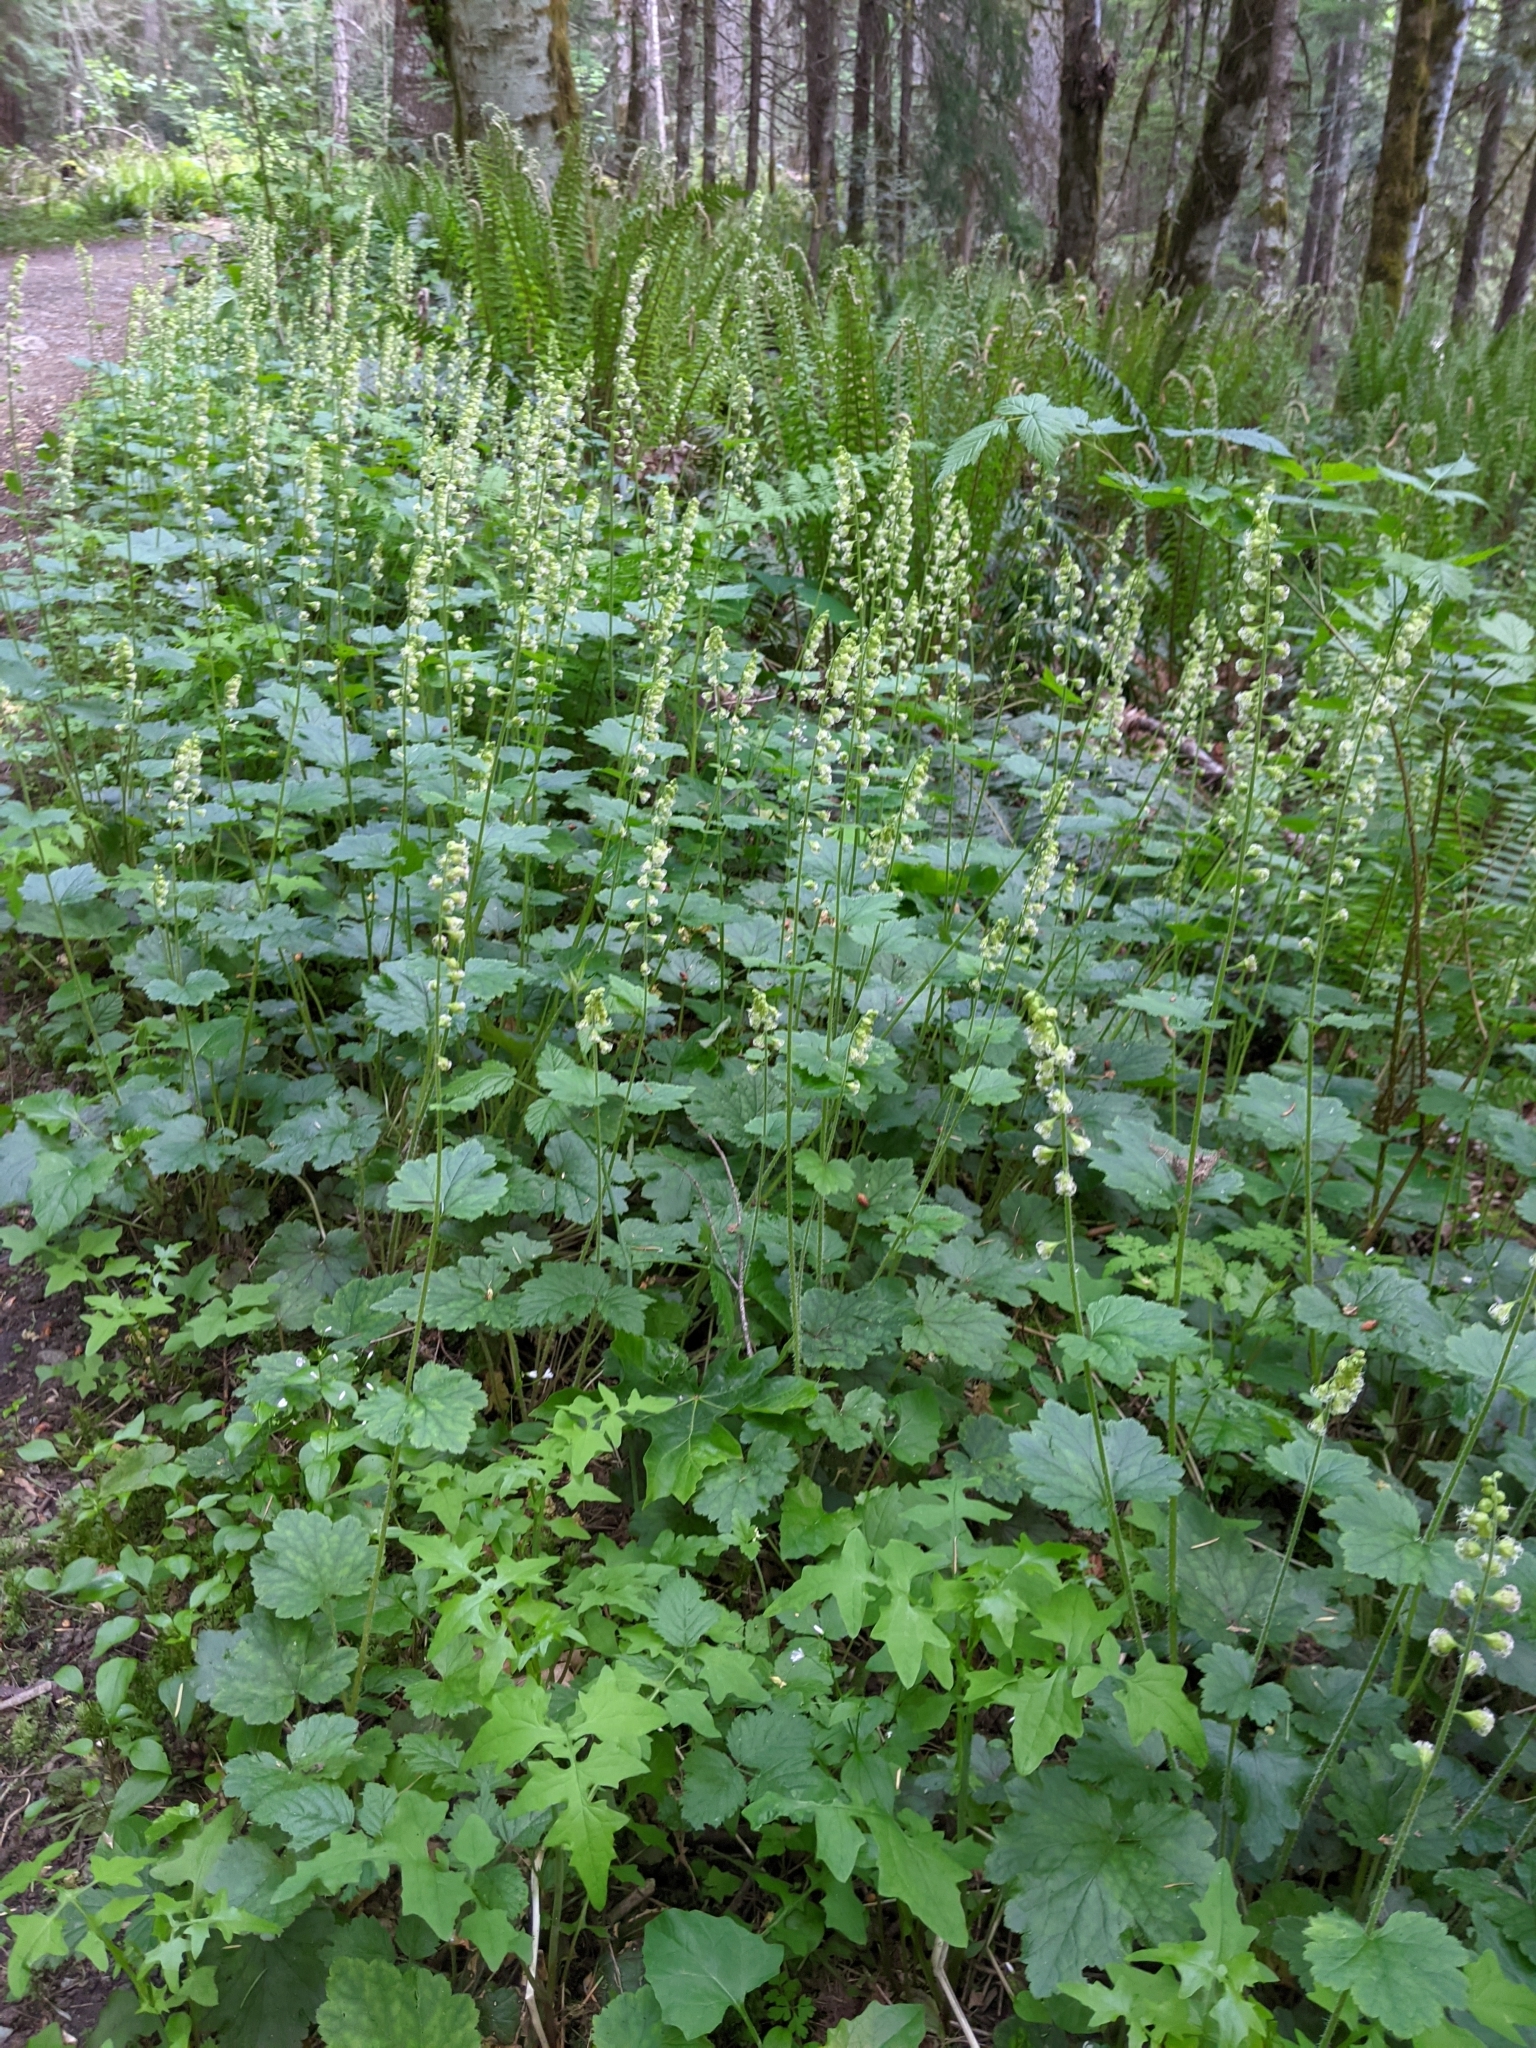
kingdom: Plantae
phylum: Tracheophyta
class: Magnoliopsida
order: Saxifragales
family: Saxifragaceae
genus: Tellima
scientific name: Tellima grandiflora
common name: Fringecups
